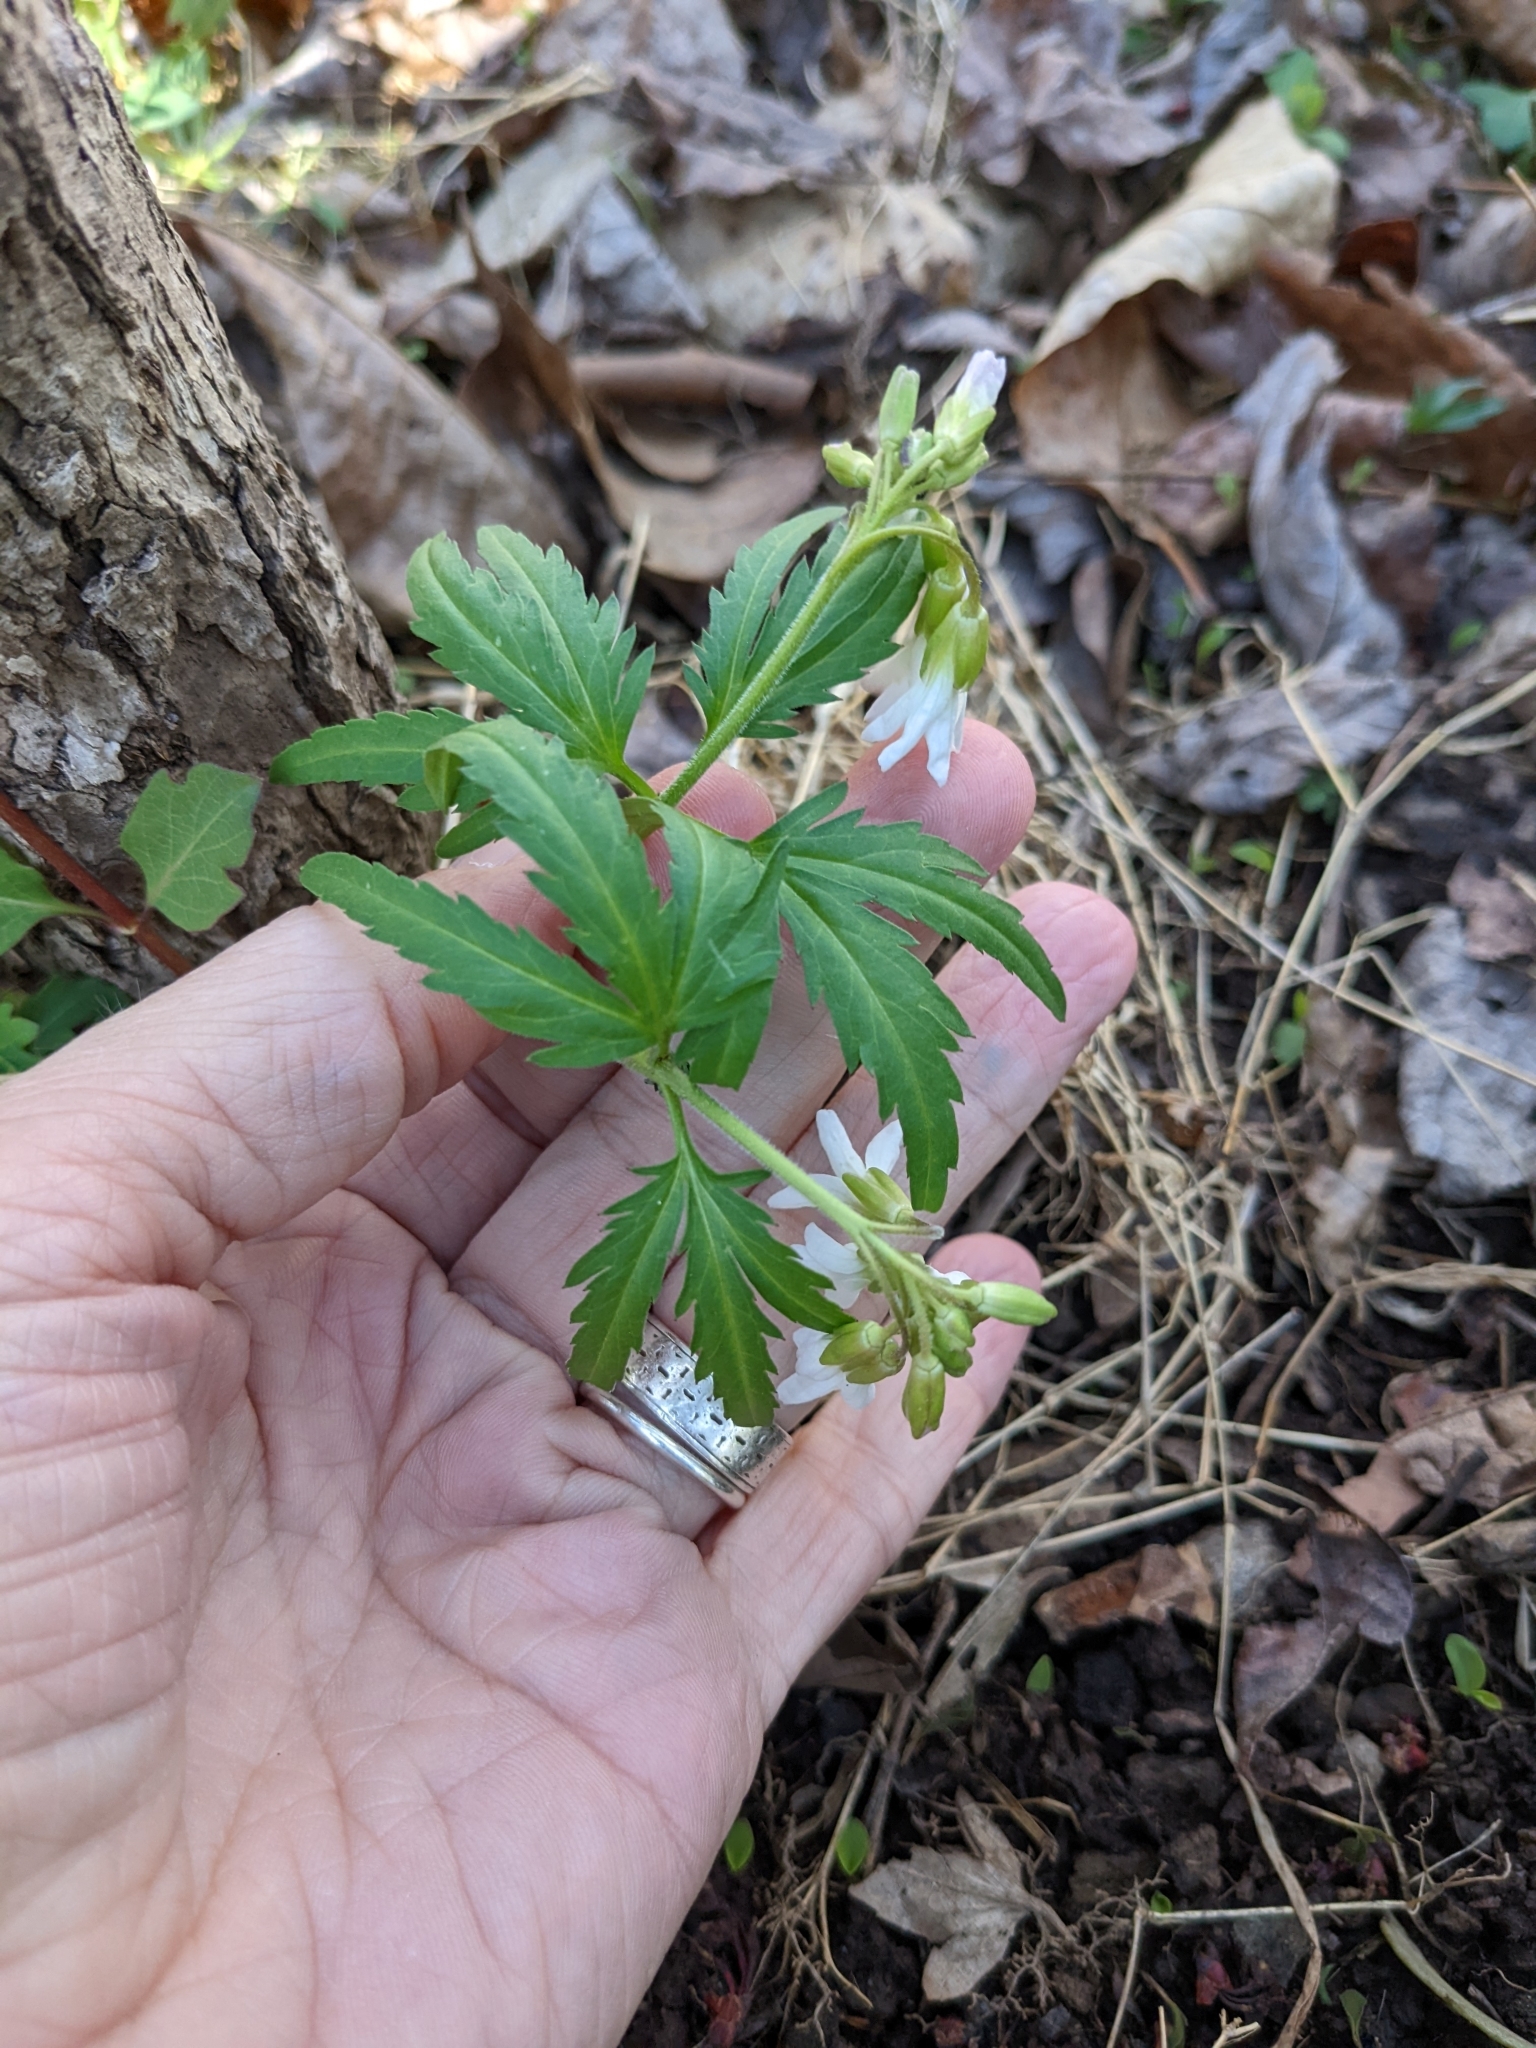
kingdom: Plantae
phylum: Tracheophyta
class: Magnoliopsida
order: Brassicales
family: Brassicaceae
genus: Cardamine
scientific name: Cardamine concatenata
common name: Cut-leaf toothcup
